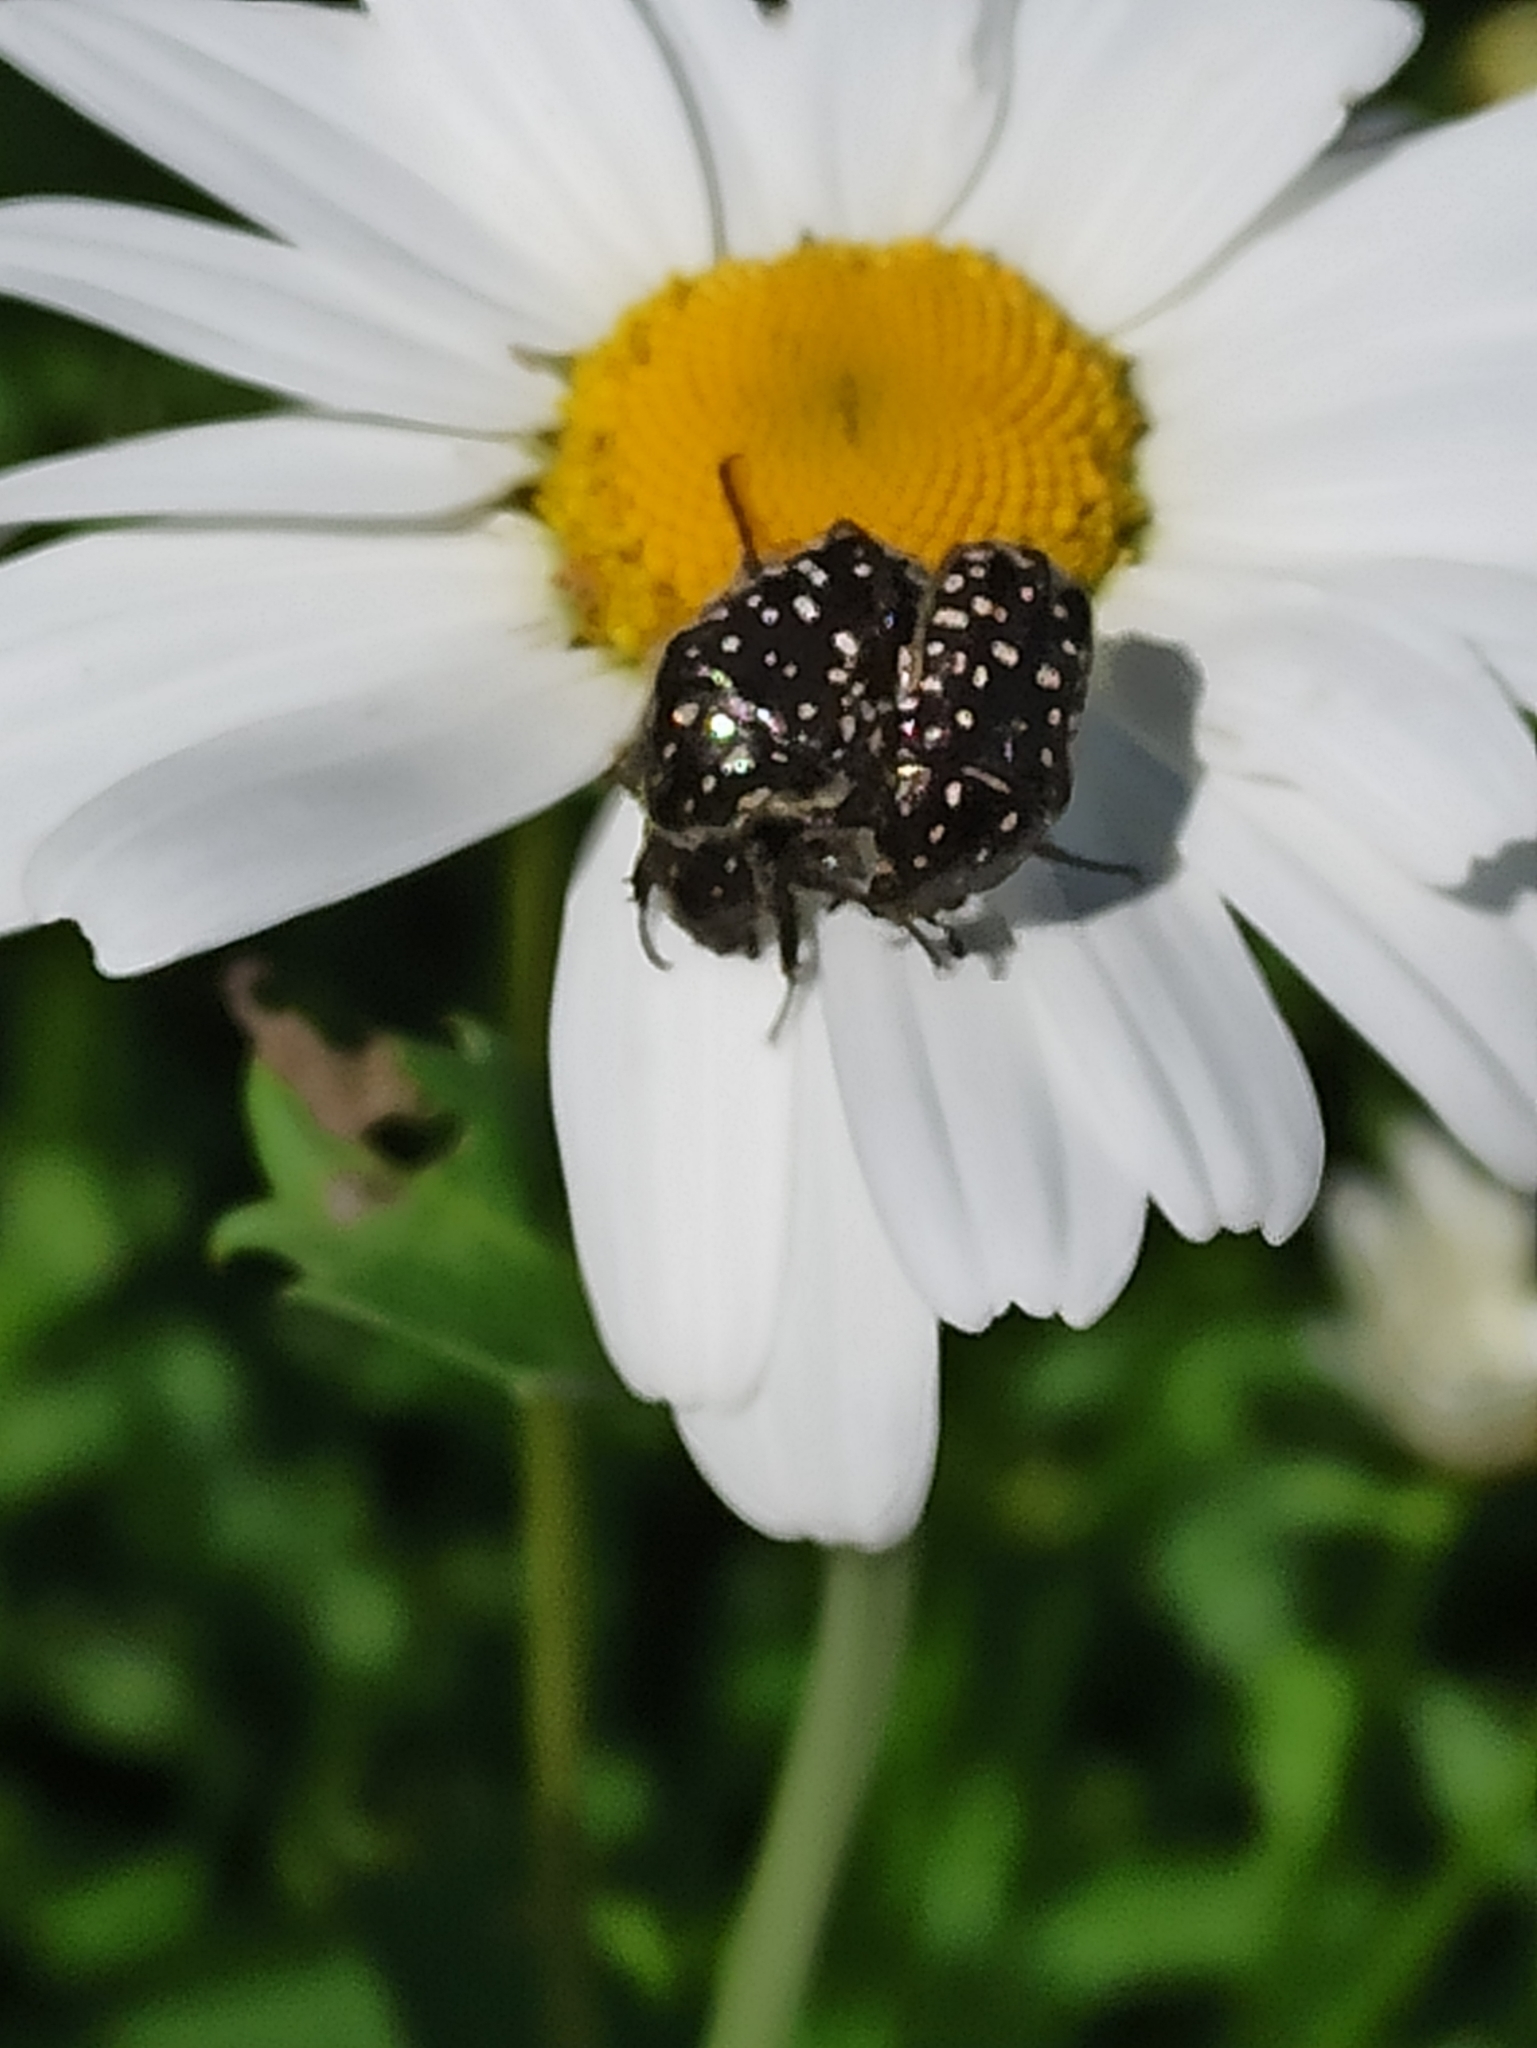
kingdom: Animalia
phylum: Arthropoda
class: Insecta
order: Coleoptera
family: Scarabaeidae
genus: Oxythyrea
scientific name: Oxythyrea funesta
